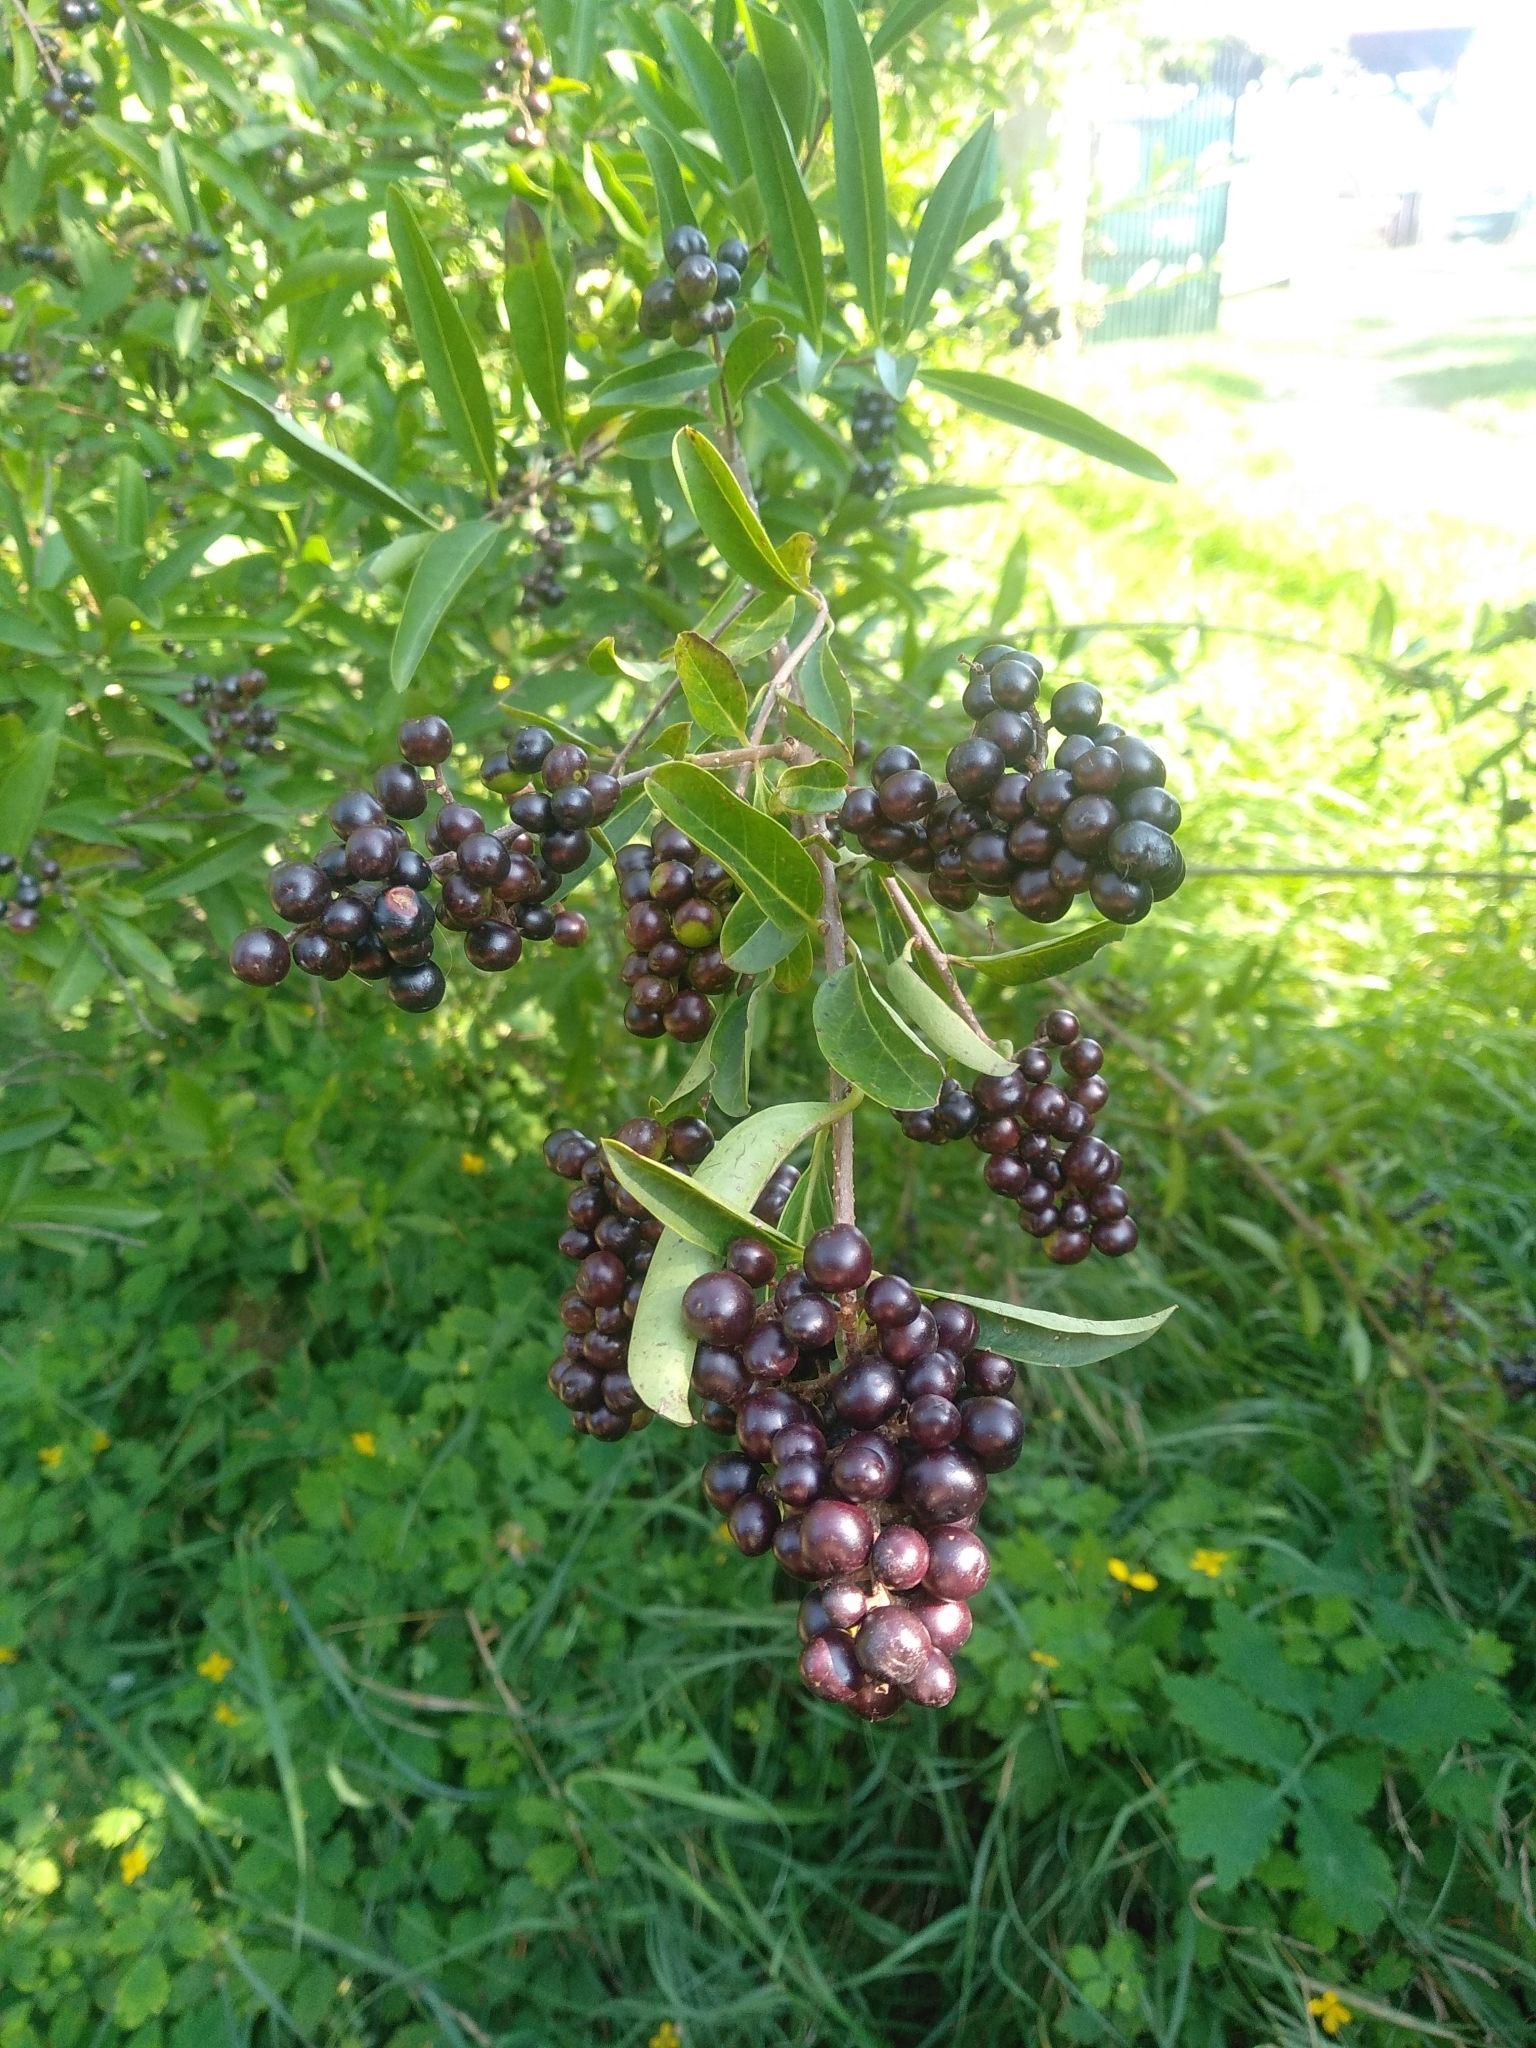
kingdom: Plantae
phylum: Tracheophyta
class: Magnoliopsida
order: Lamiales
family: Oleaceae
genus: Ligustrum
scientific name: Ligustrum vulgare
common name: Wild privet
